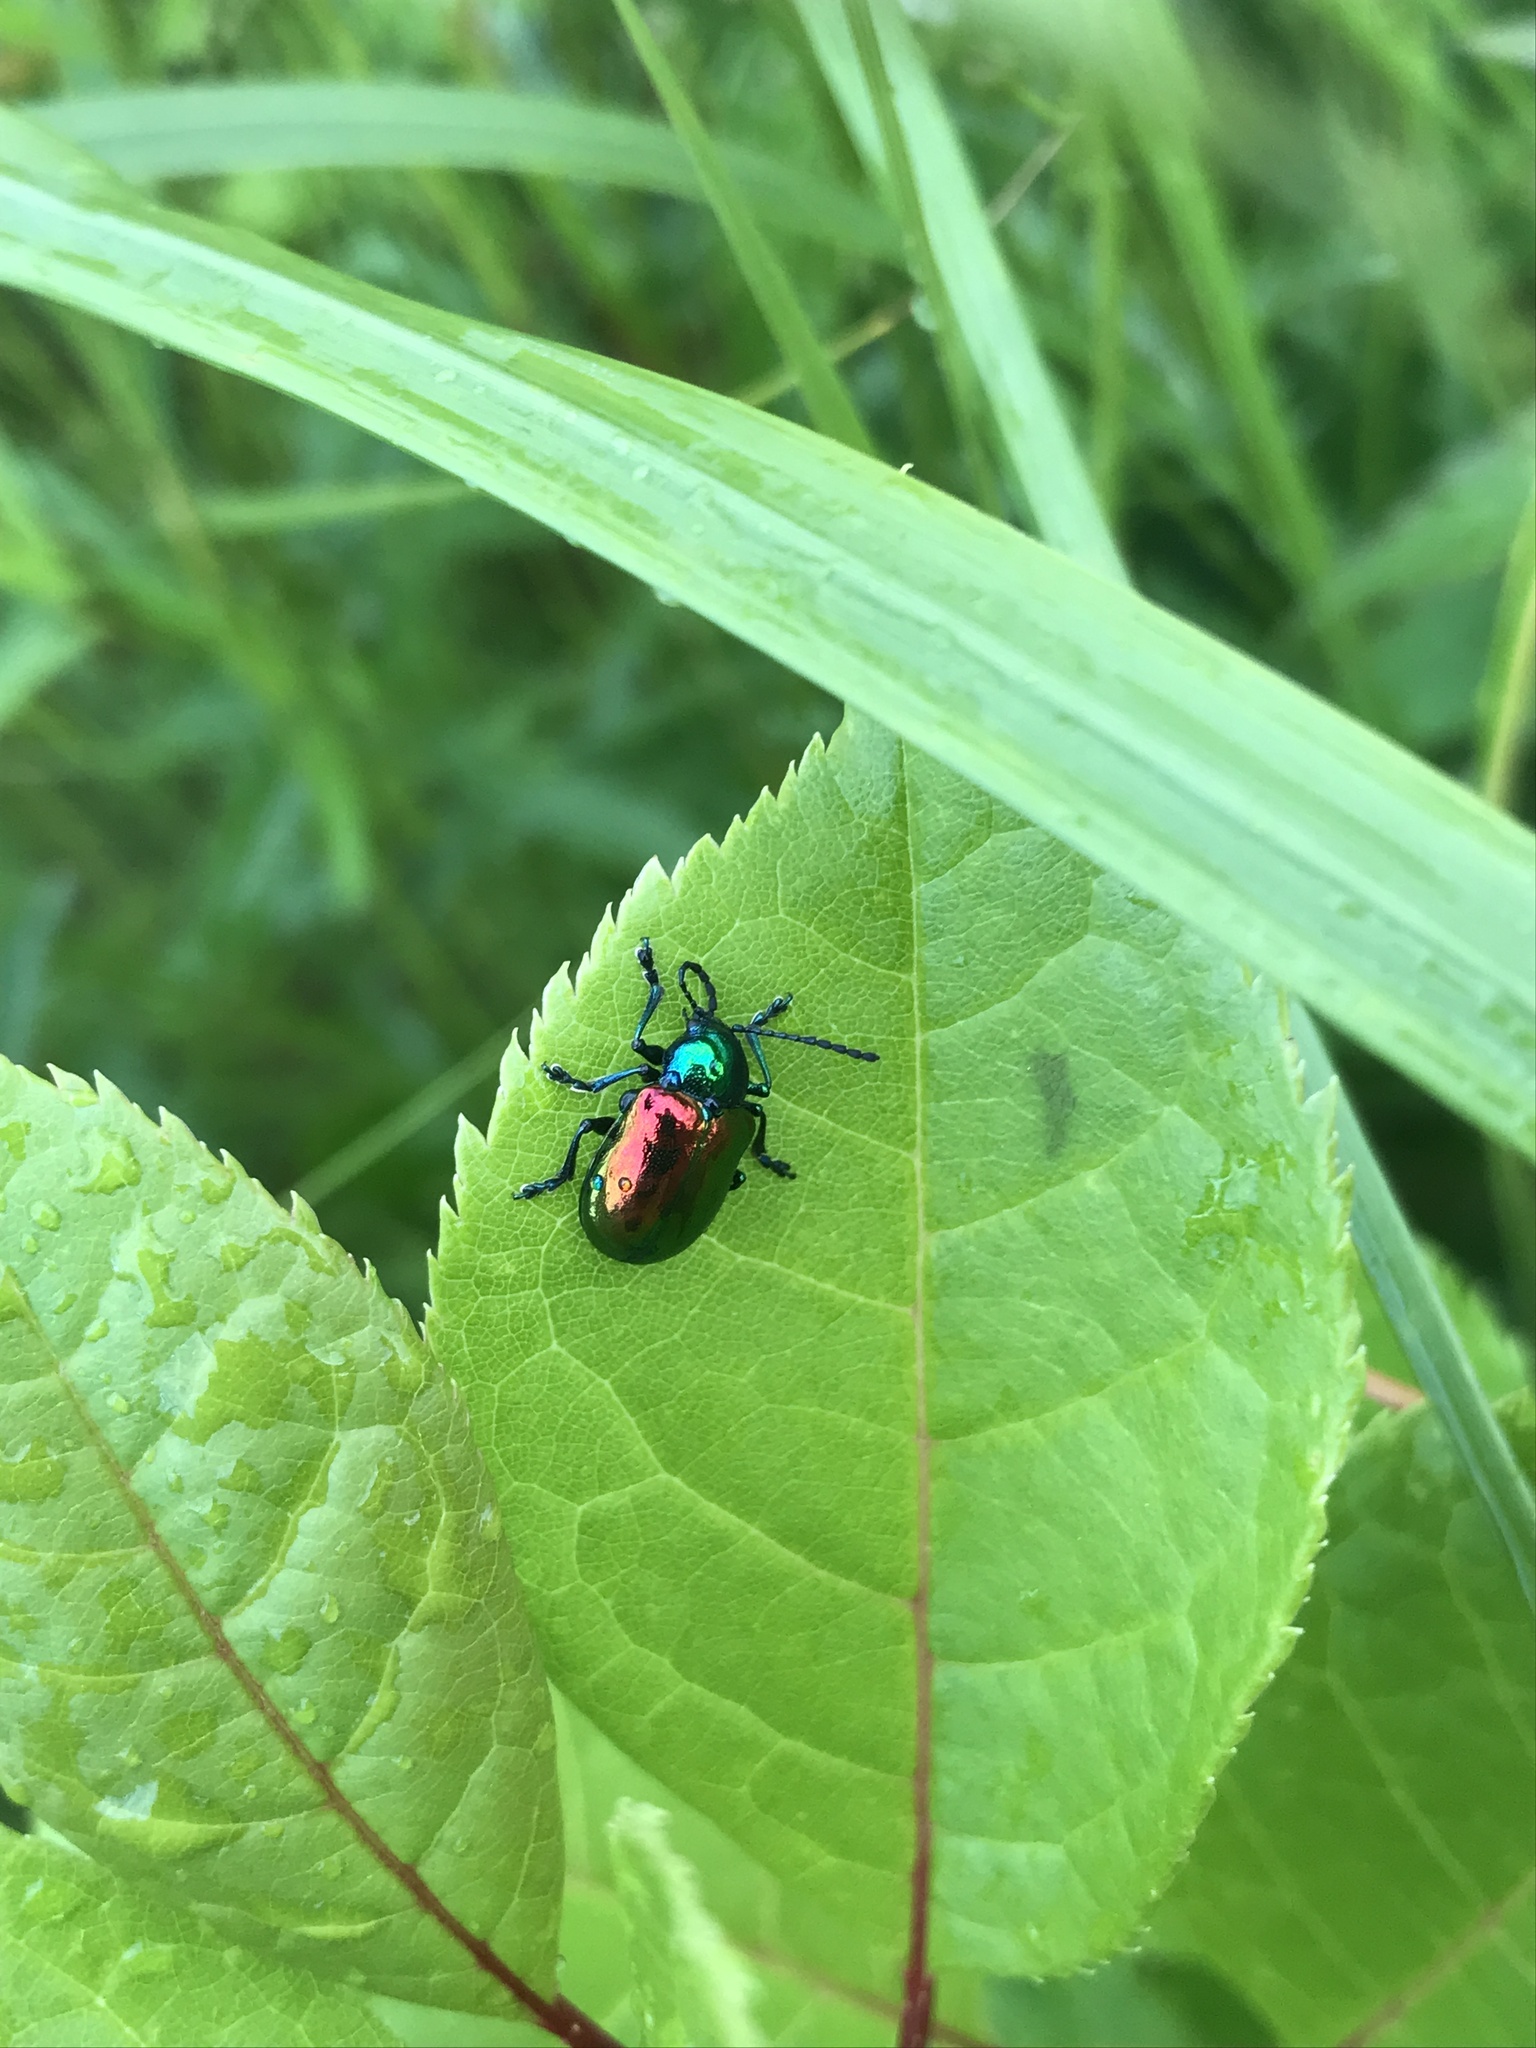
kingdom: Animalia
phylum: Arthropoda
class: Insecta
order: Coleoptera
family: Chrysomelidae
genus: Chrysochus
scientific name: Chrysochus auratus
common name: Dogbane leaf beetle
